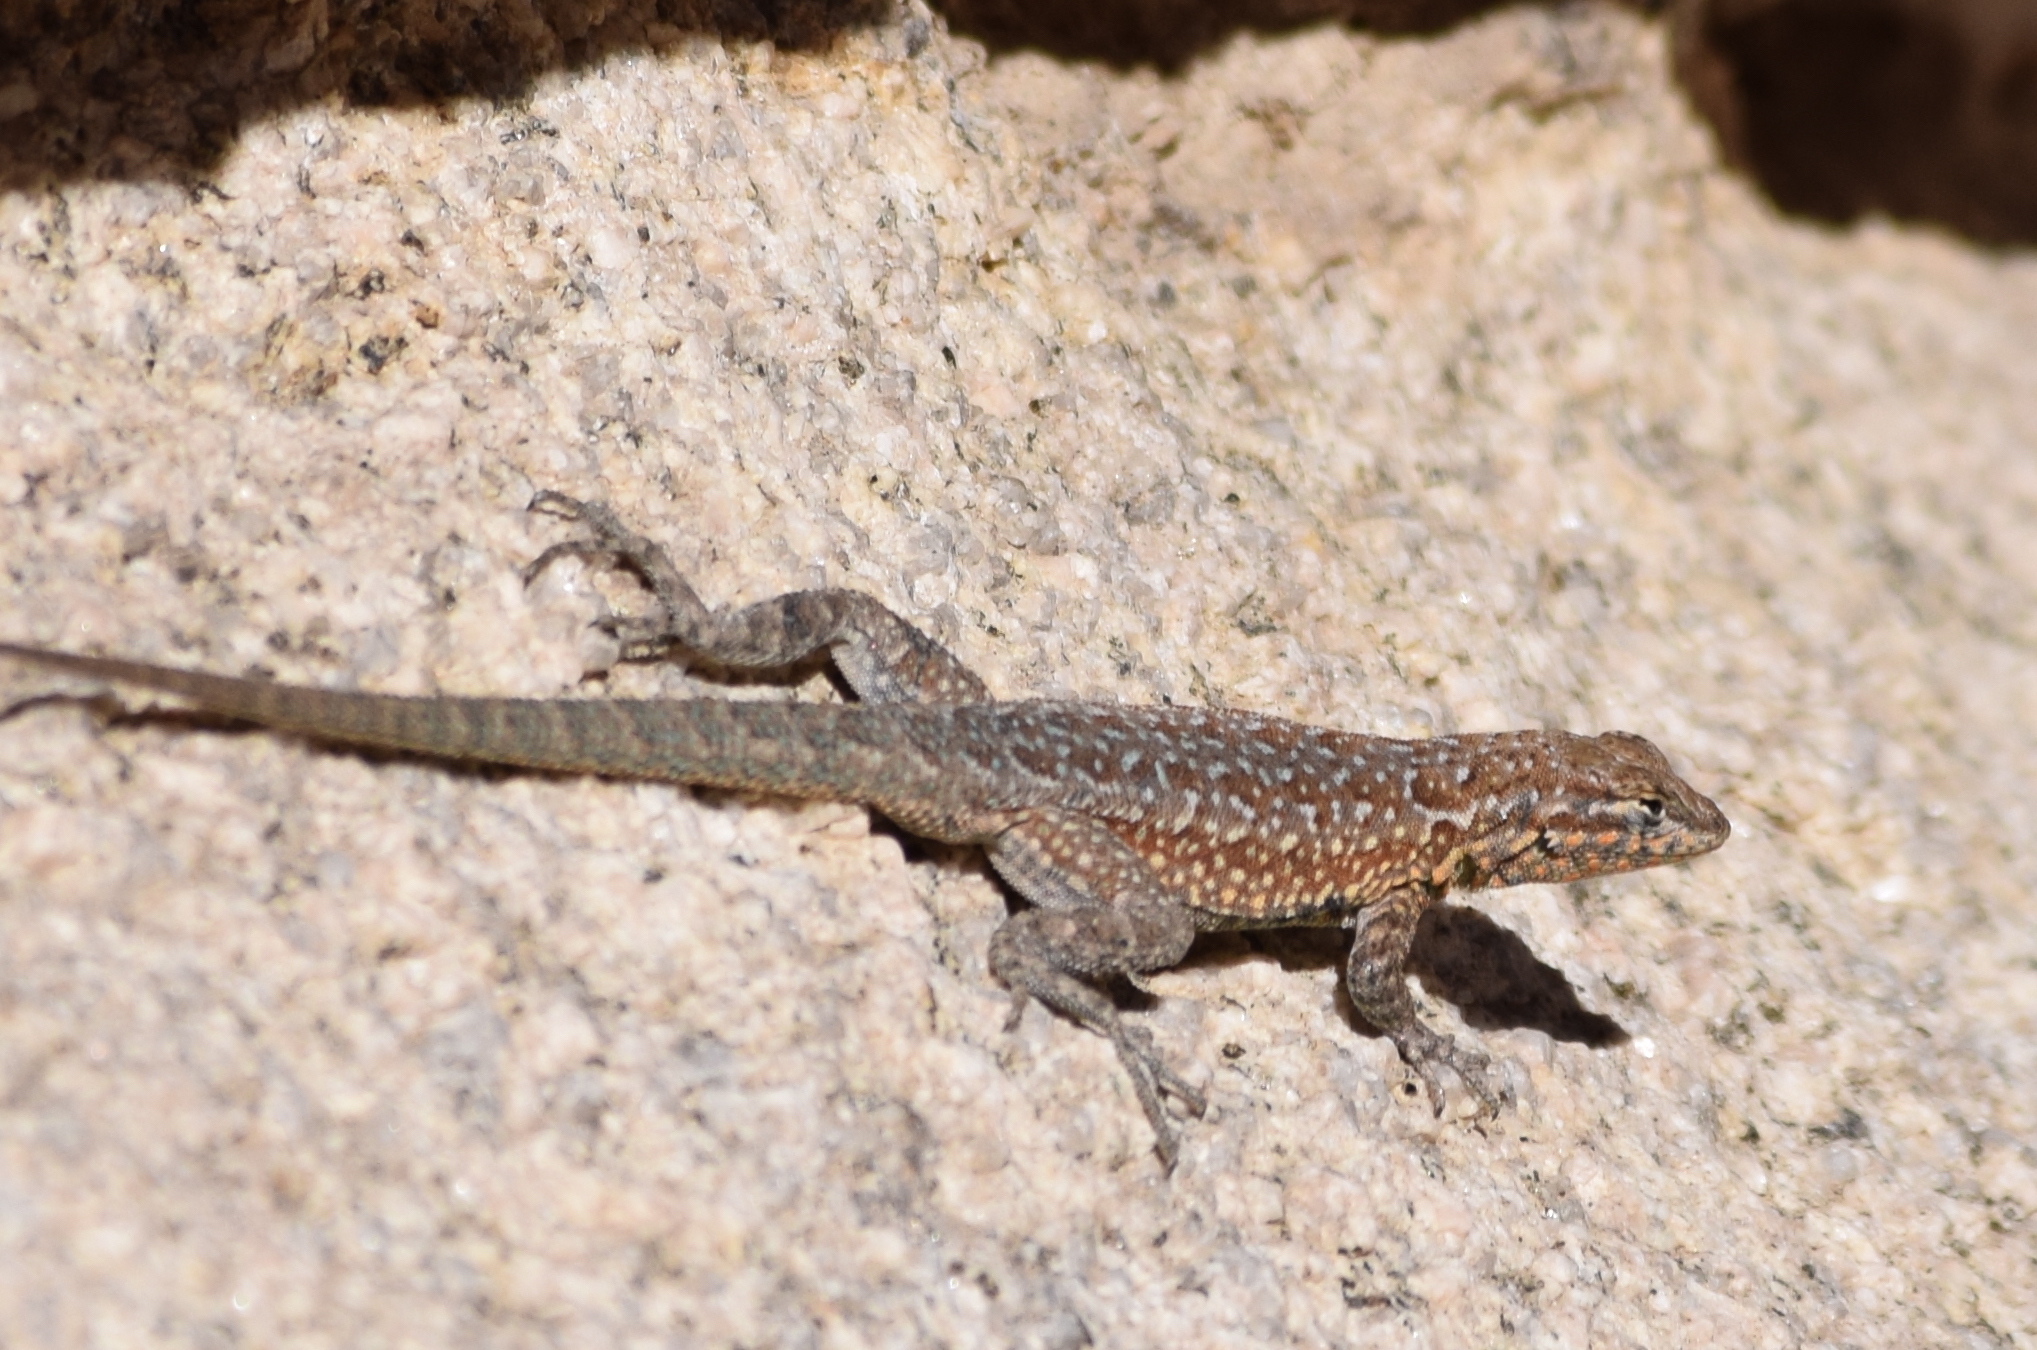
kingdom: Animalia
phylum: Chordata
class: Squamata
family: Phrynosomatidae
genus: Uta
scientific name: Uta stansburiana
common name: Side-blotched lizard
